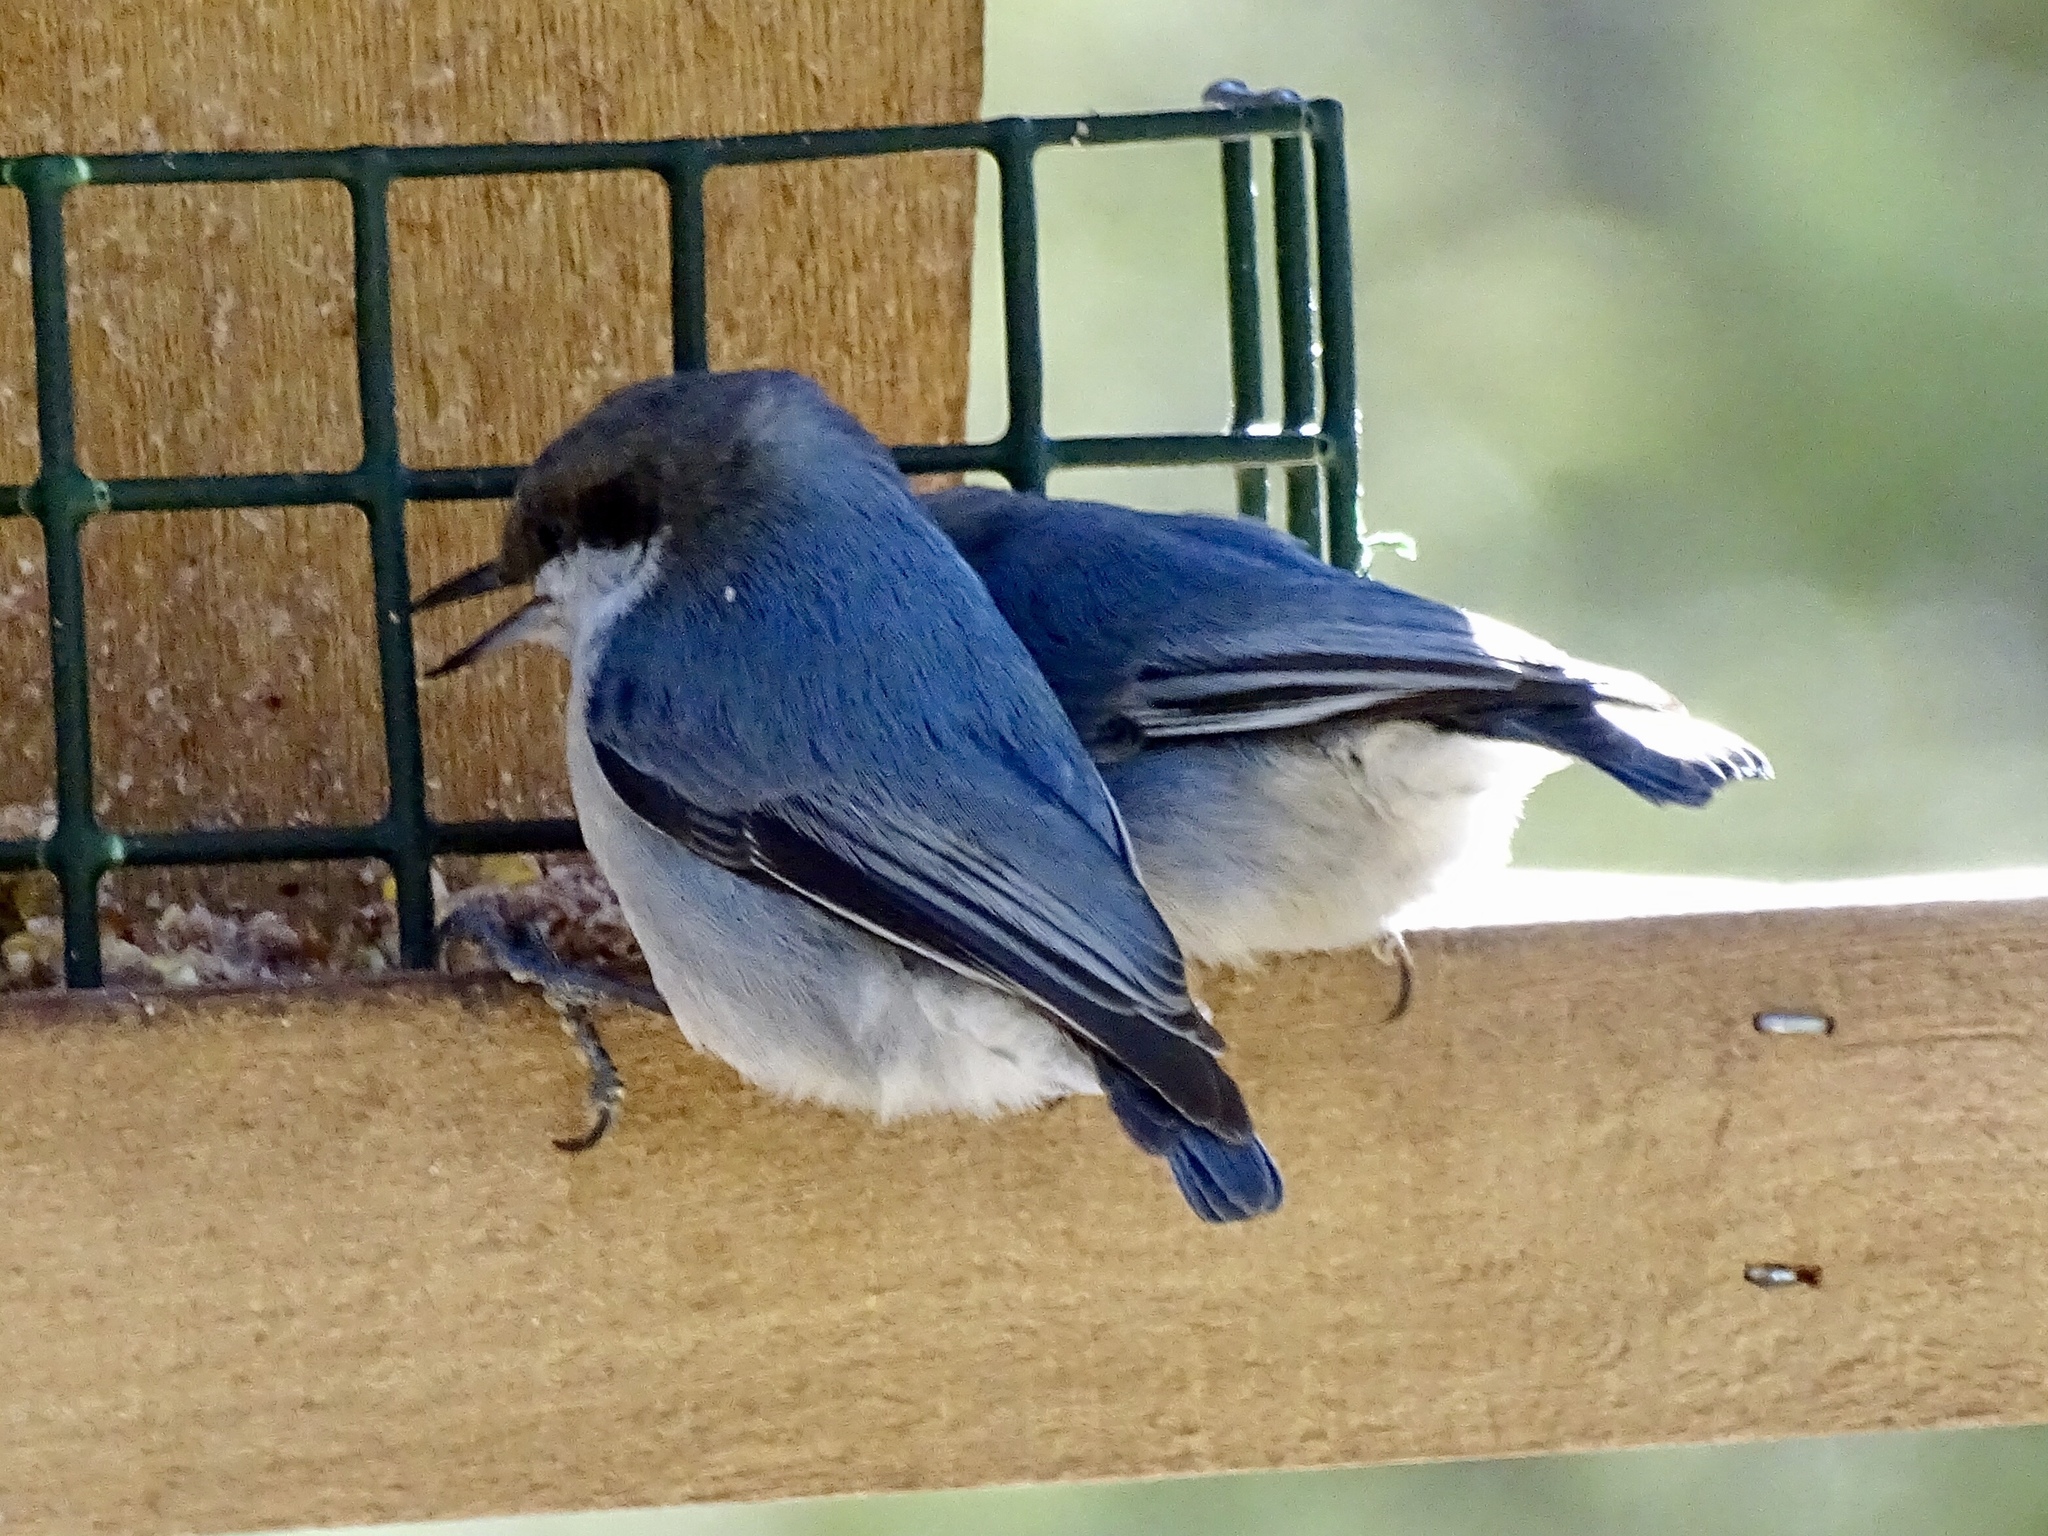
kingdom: Animalia
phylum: Chordata
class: Aves
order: Passeriformes
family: Sittidae
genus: Sitta
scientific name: Sitta pygmaea
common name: Pygmy nuthatch
